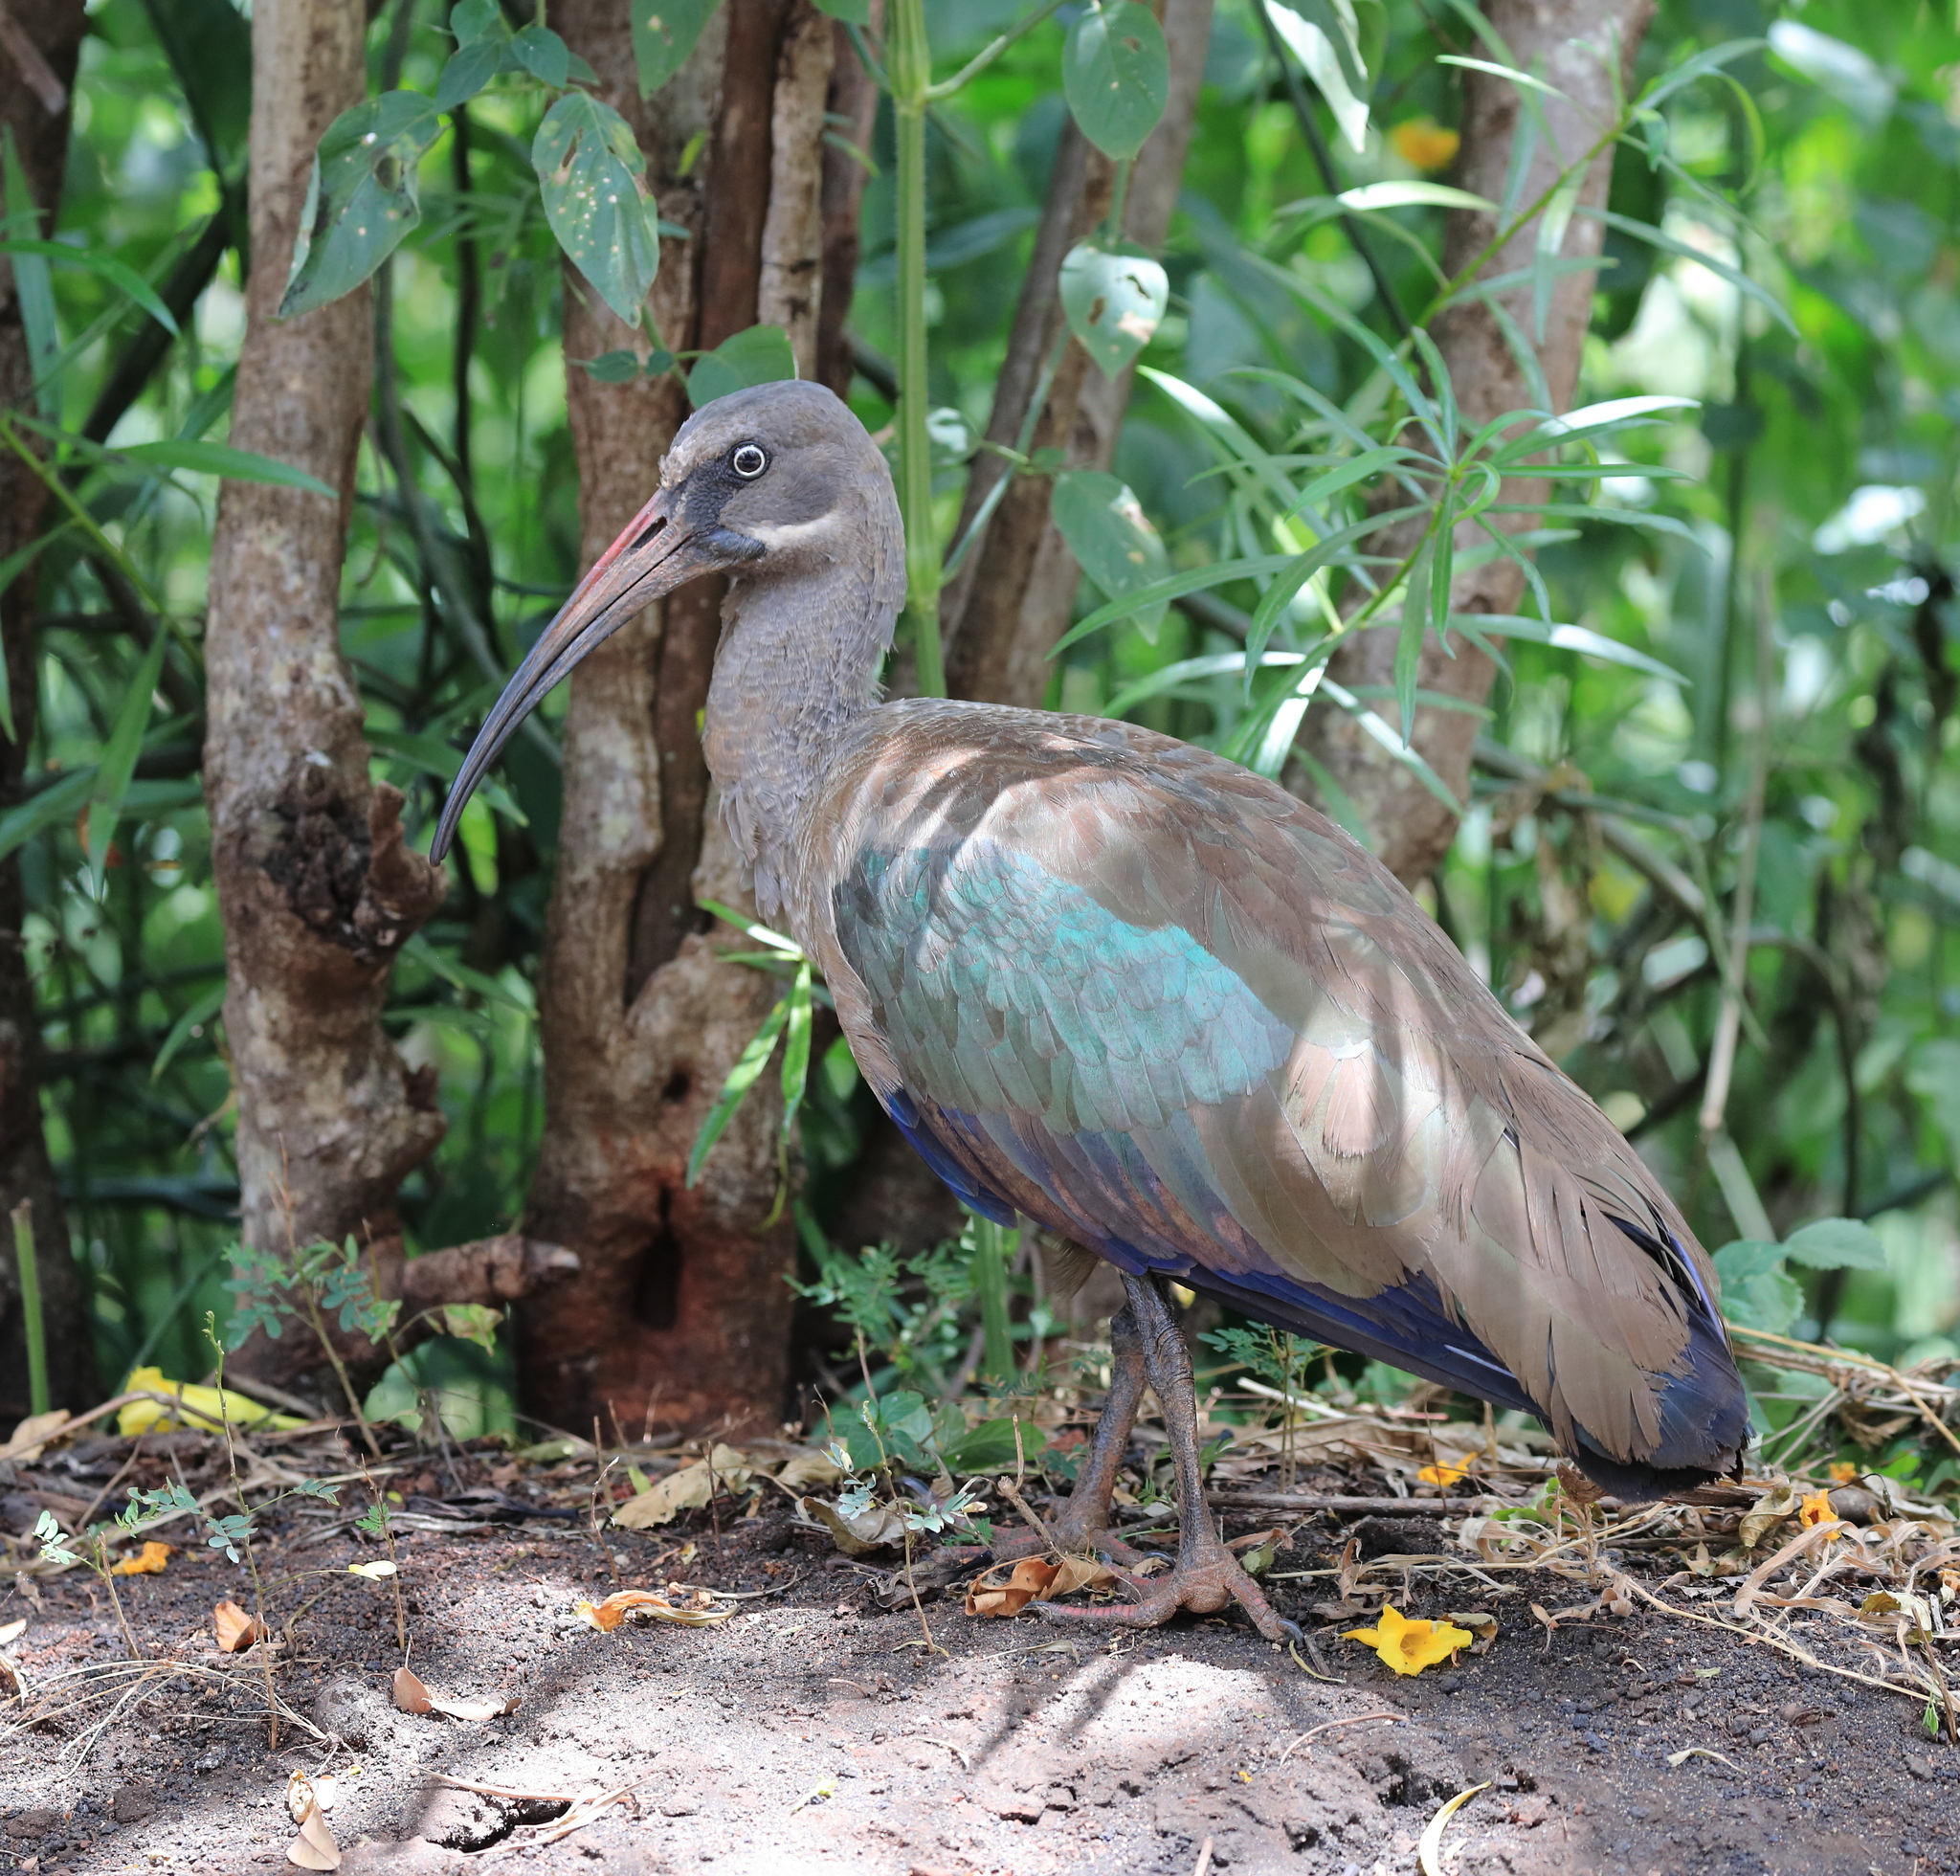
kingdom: Animalia
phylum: Chordata
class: Aves
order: Pelecaniformes
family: Threskiornithidae
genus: Bostrychia
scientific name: Bostrychia hagedash
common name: Hadada ibis
